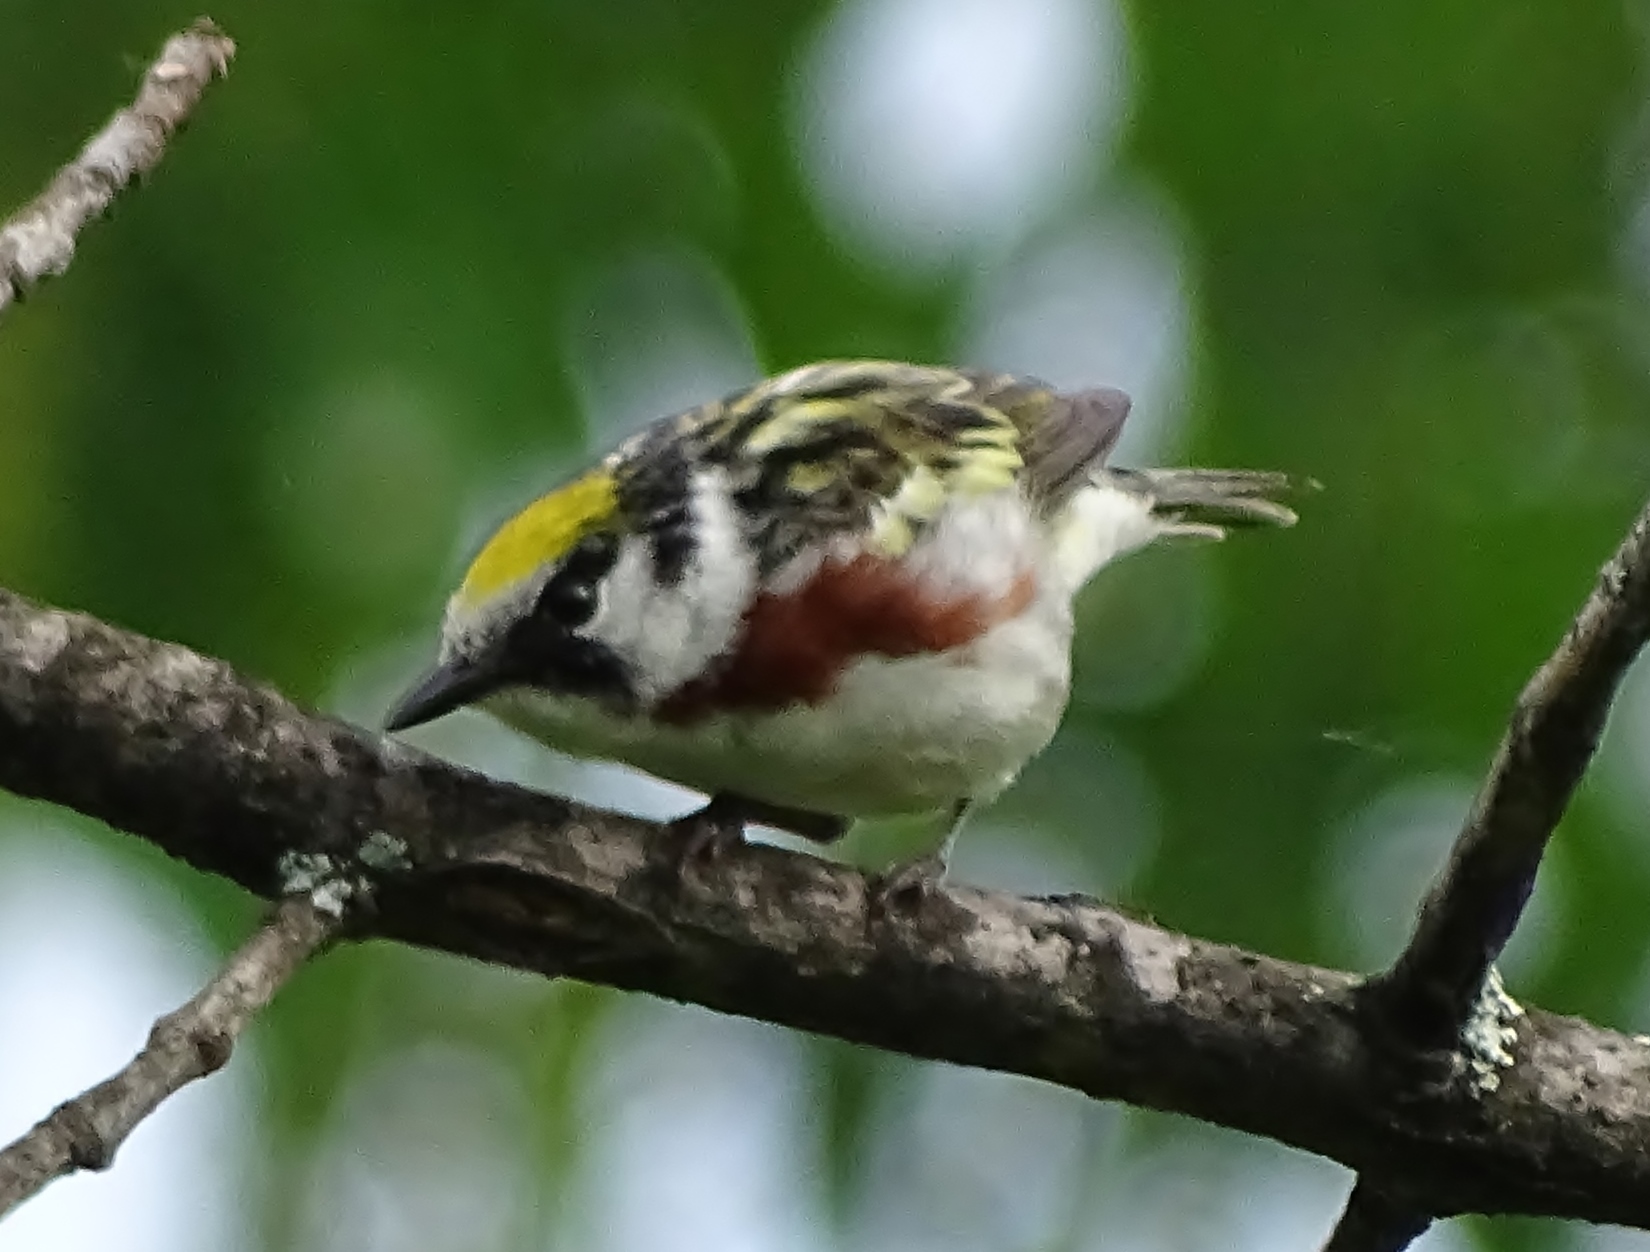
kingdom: Animalia
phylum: Chordata
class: Aves
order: Passeriformes
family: Parulidae
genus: Setophaga
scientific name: Setophaga pensylvanica
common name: Chestnut-sided warbler
